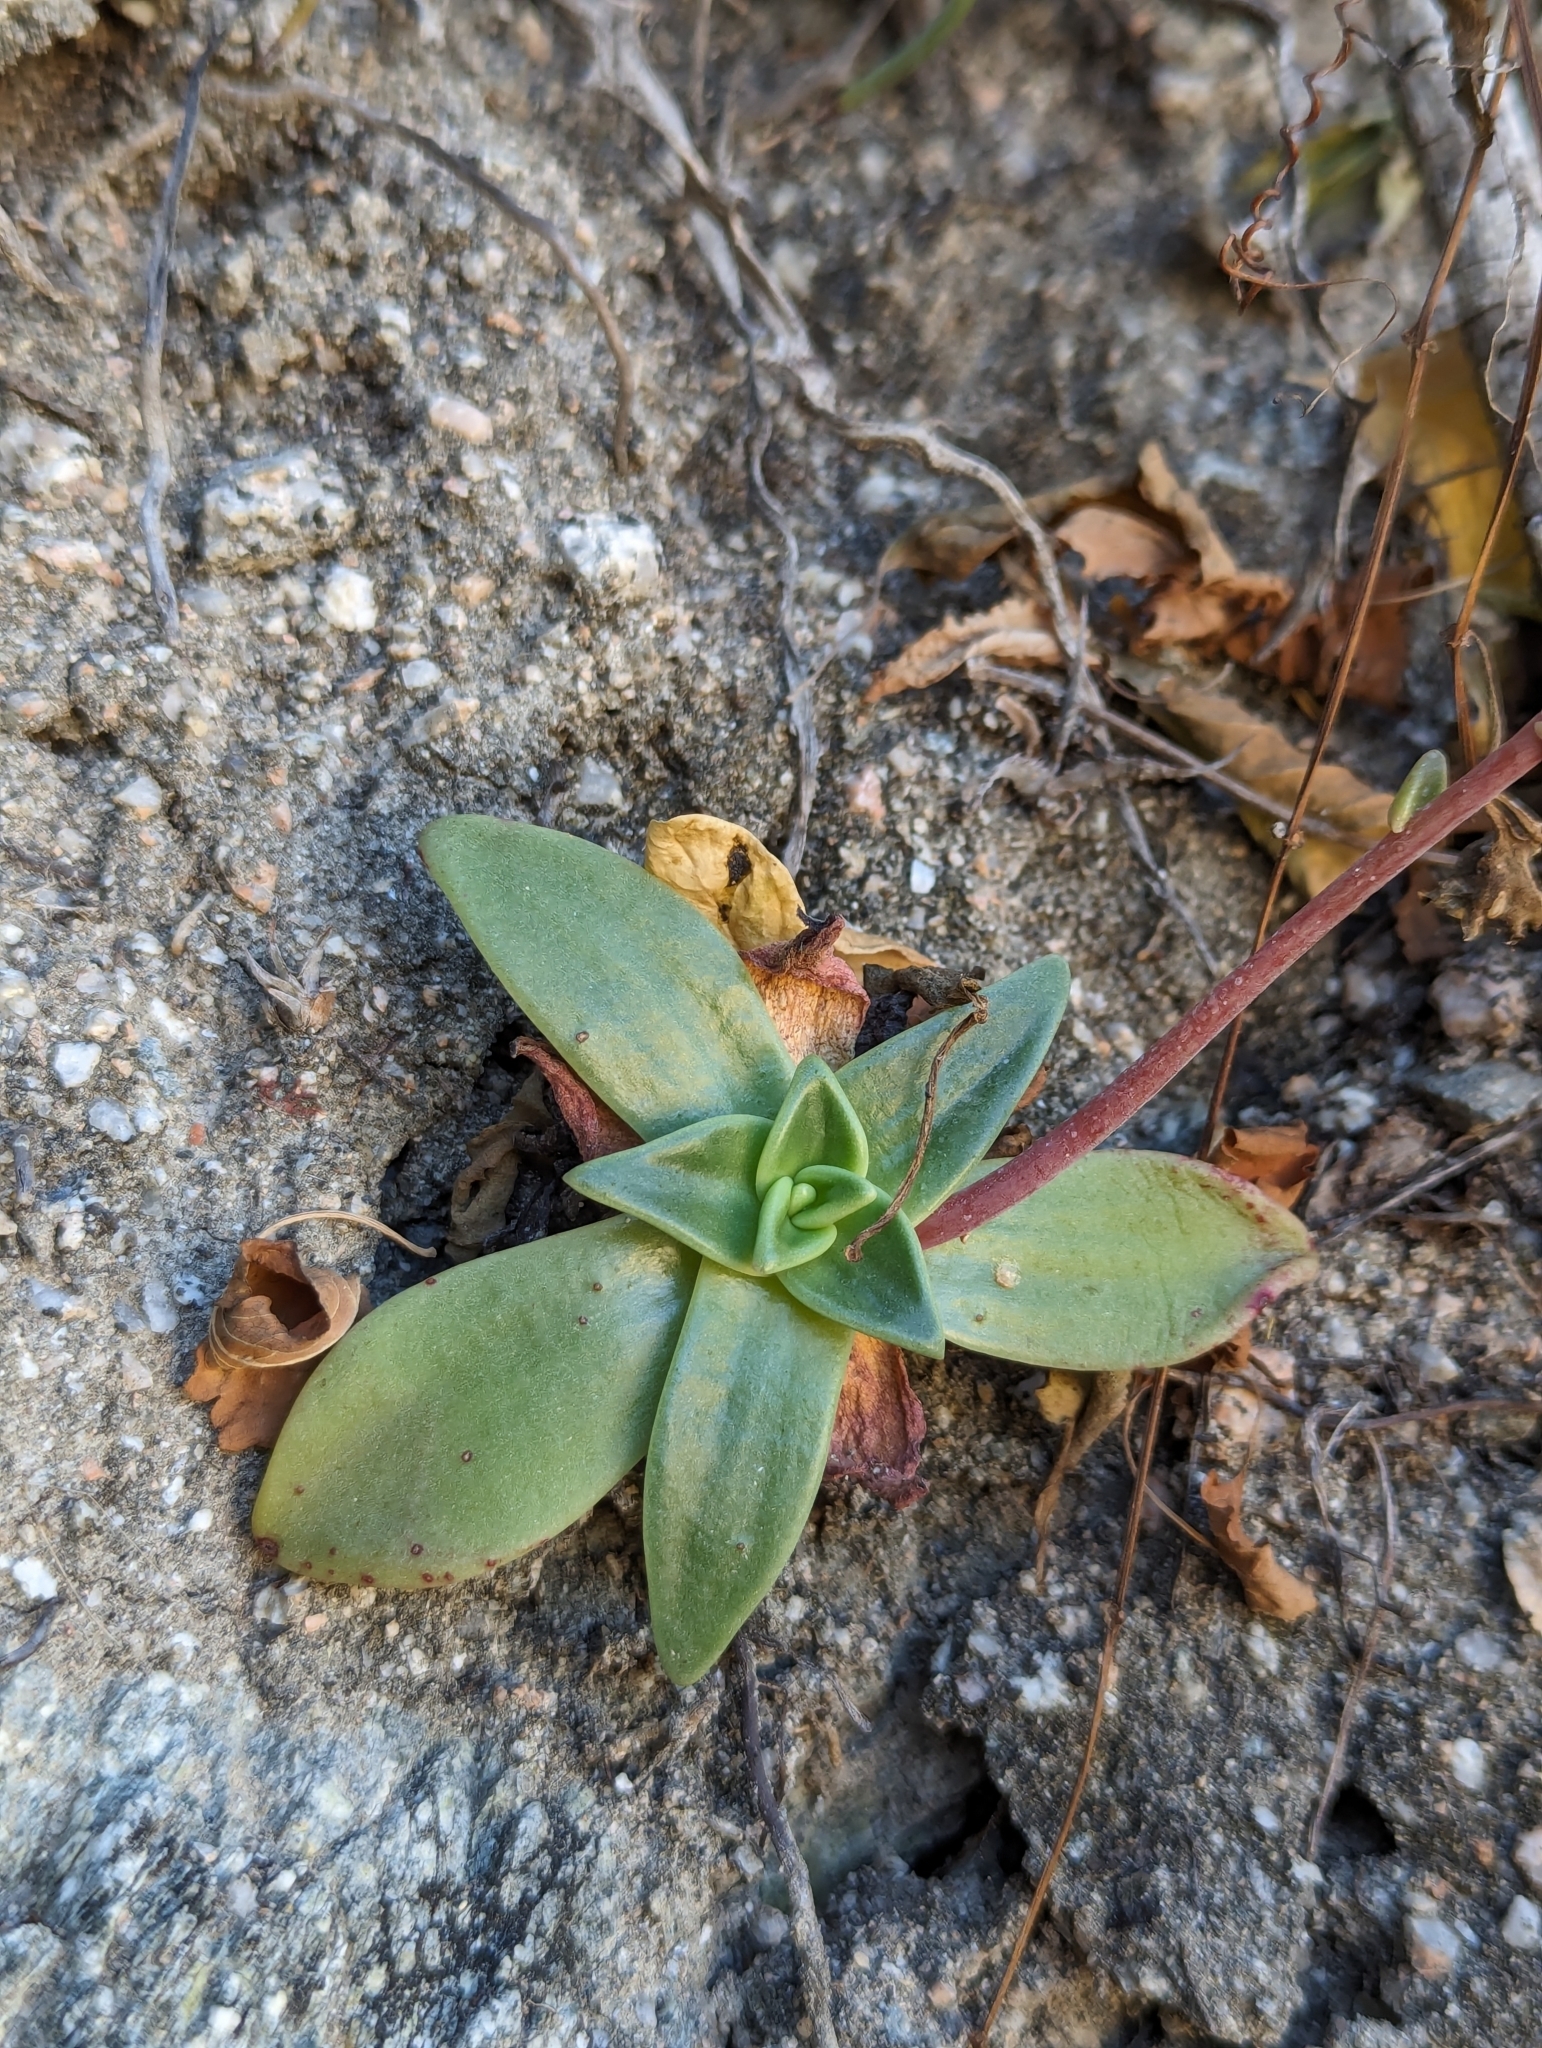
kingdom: Plantae
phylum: Tracheophyta
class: Magnoliopsida
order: Saxifragales
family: Crassulaceae
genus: Dudleya
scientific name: Dudleya nubigena
